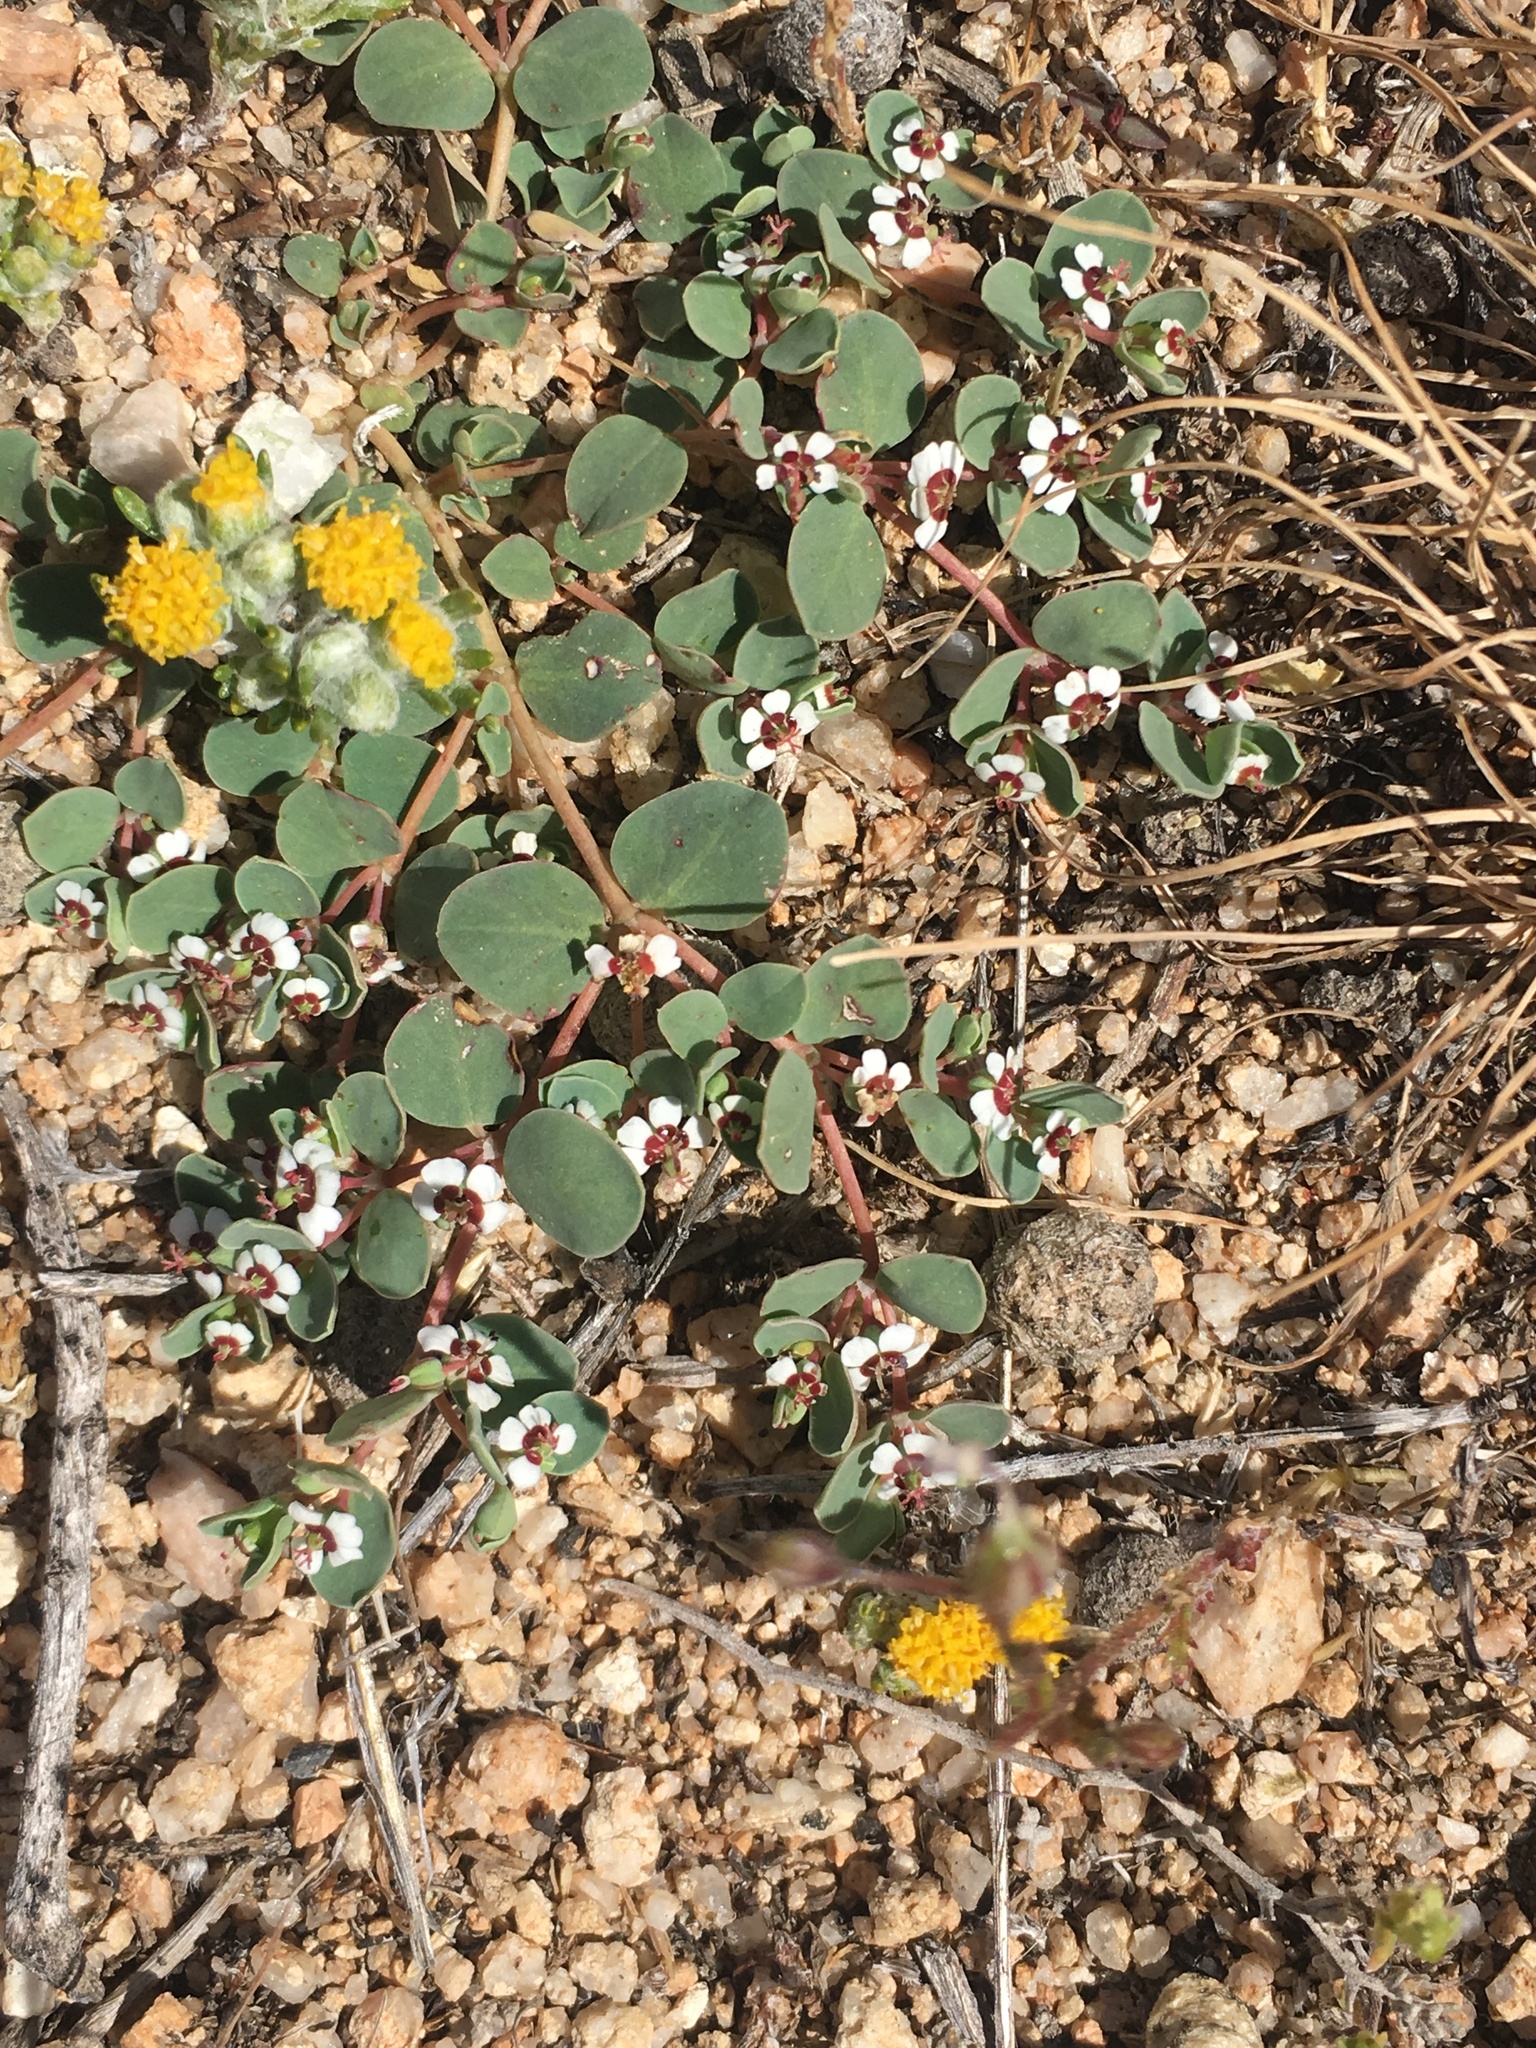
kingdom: Plantae
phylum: Tracheophyta
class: Magnoliopsida
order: Malpighiales
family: Euphorbiaceae
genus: Euphorbia
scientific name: Euphorbia albomarginata
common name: Whitemargin sandmat
